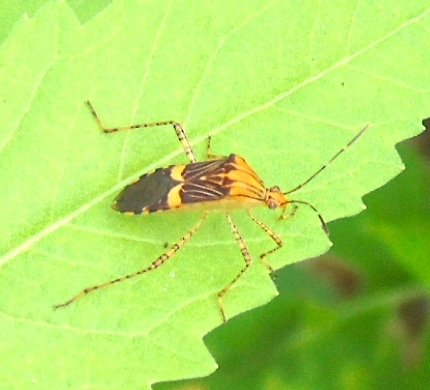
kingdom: Animalia
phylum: Arthropoda
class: Insecta
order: Hemiptera
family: Coreidae
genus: Hypselonotus
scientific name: Hypselonotus lineatus
